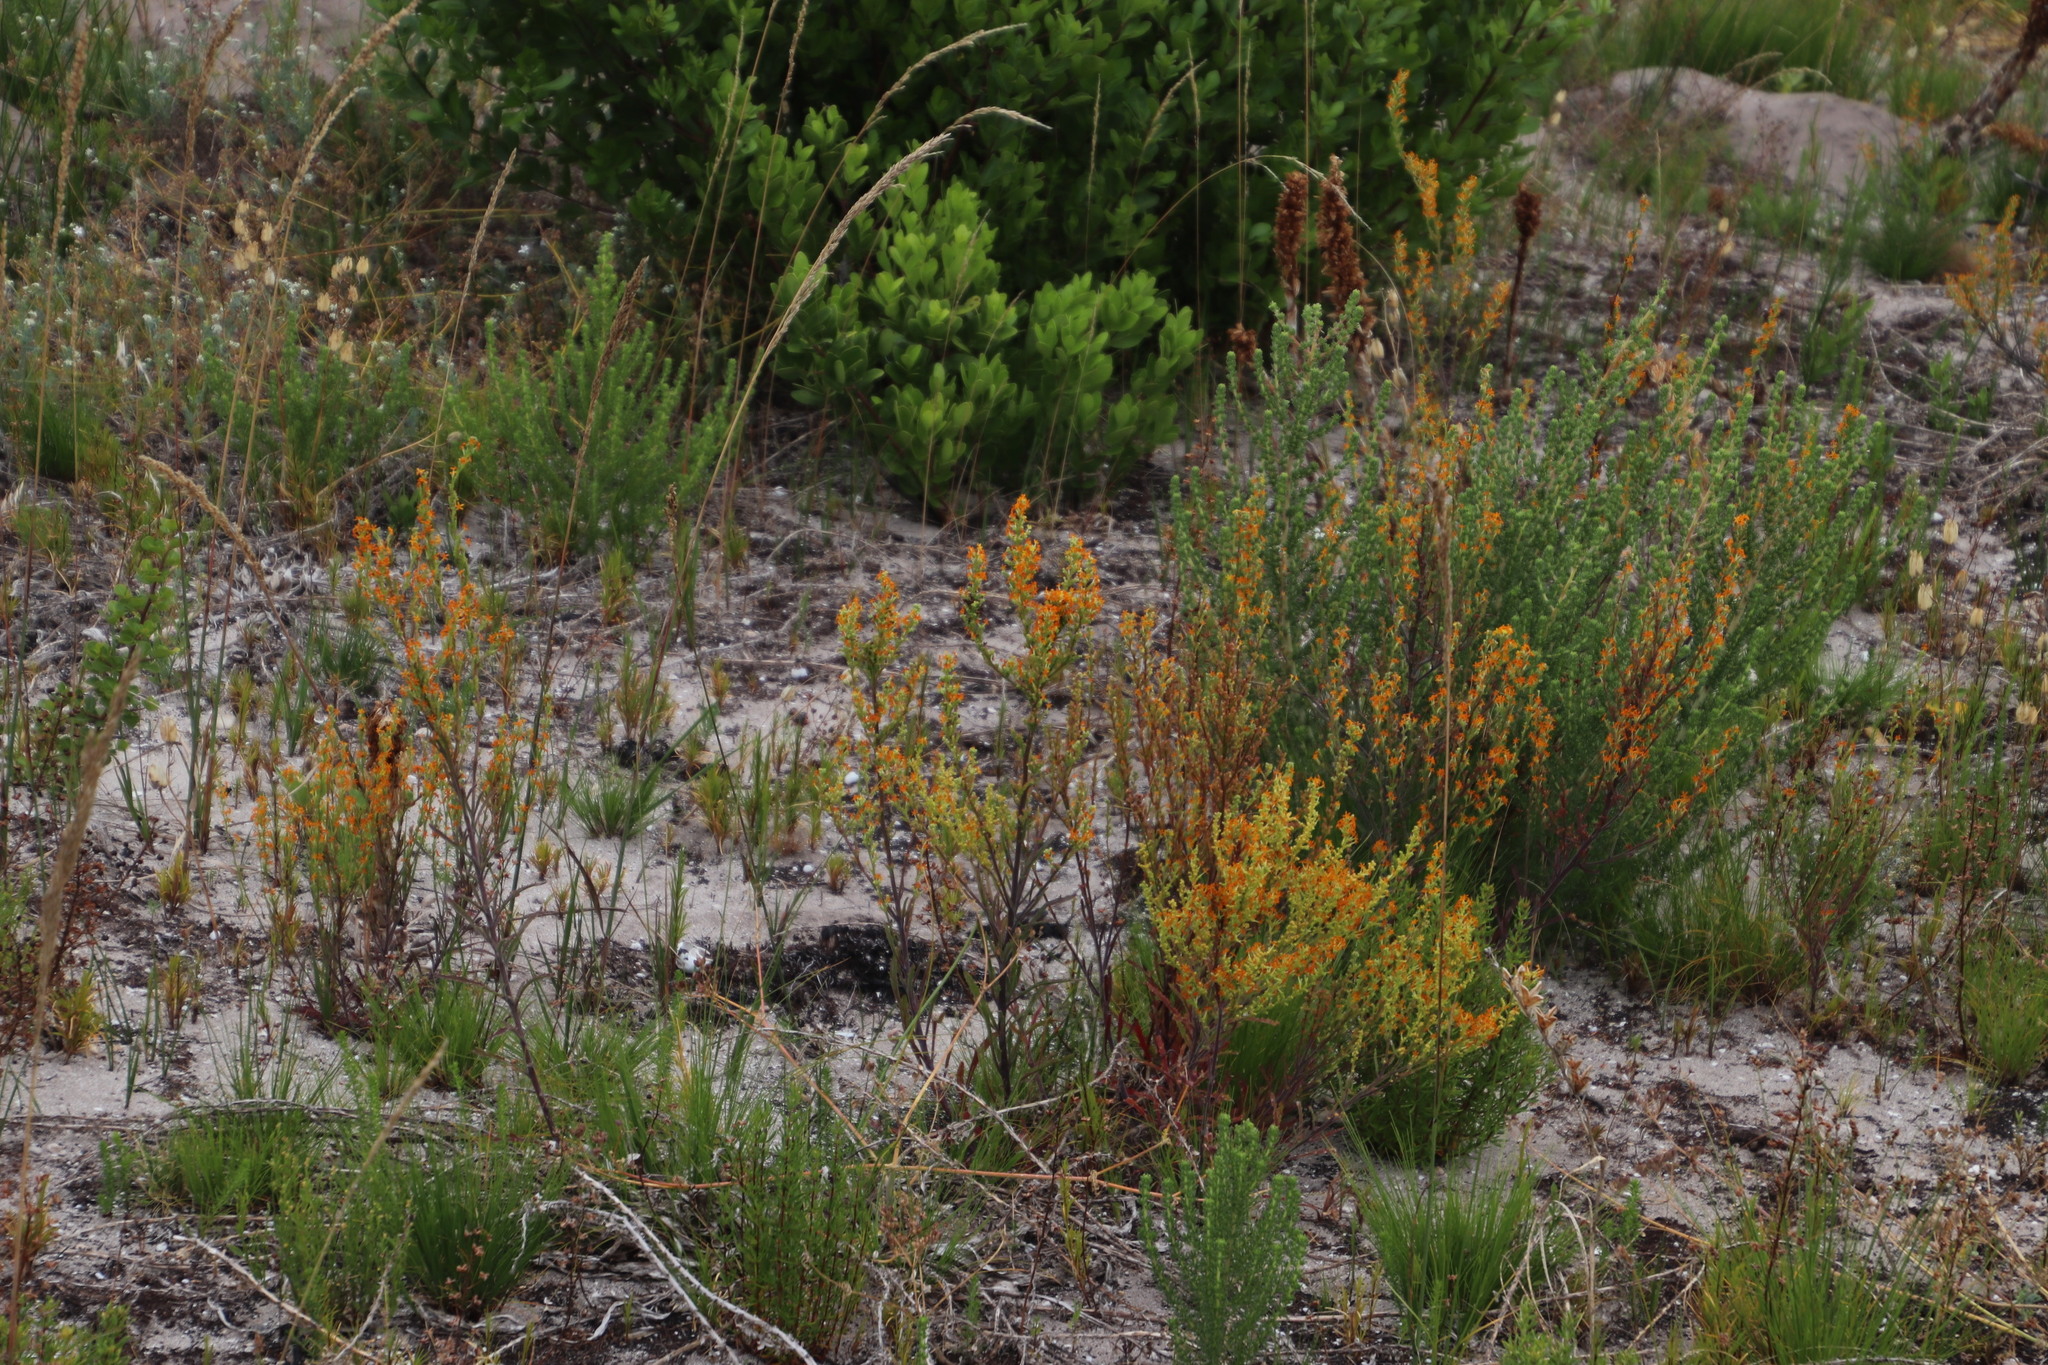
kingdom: Plantae
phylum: Tracheophyta
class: Magnoliopsida
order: Lamiales
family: Scrophulariaceae
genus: Manulea
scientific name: Manulea cheiranthus
